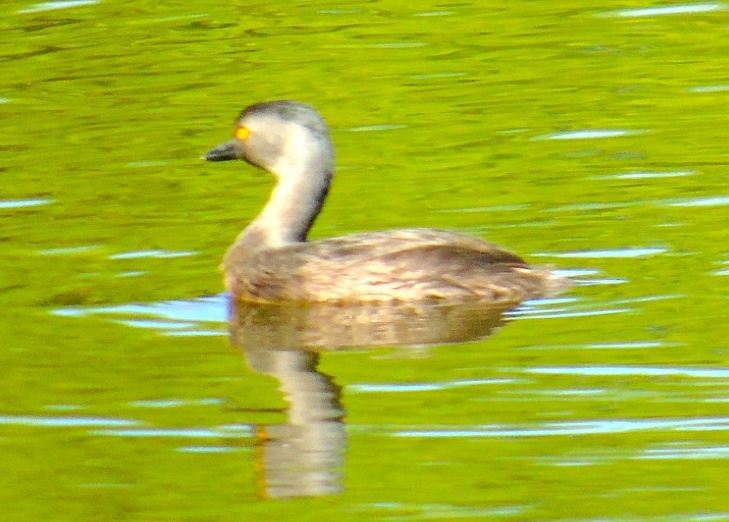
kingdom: Animalia
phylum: Chordata
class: Aves
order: Podicipediformes
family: Podicipedidae
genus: Tachybaptus
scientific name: Tachybaptus dominicus
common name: Least grebe
